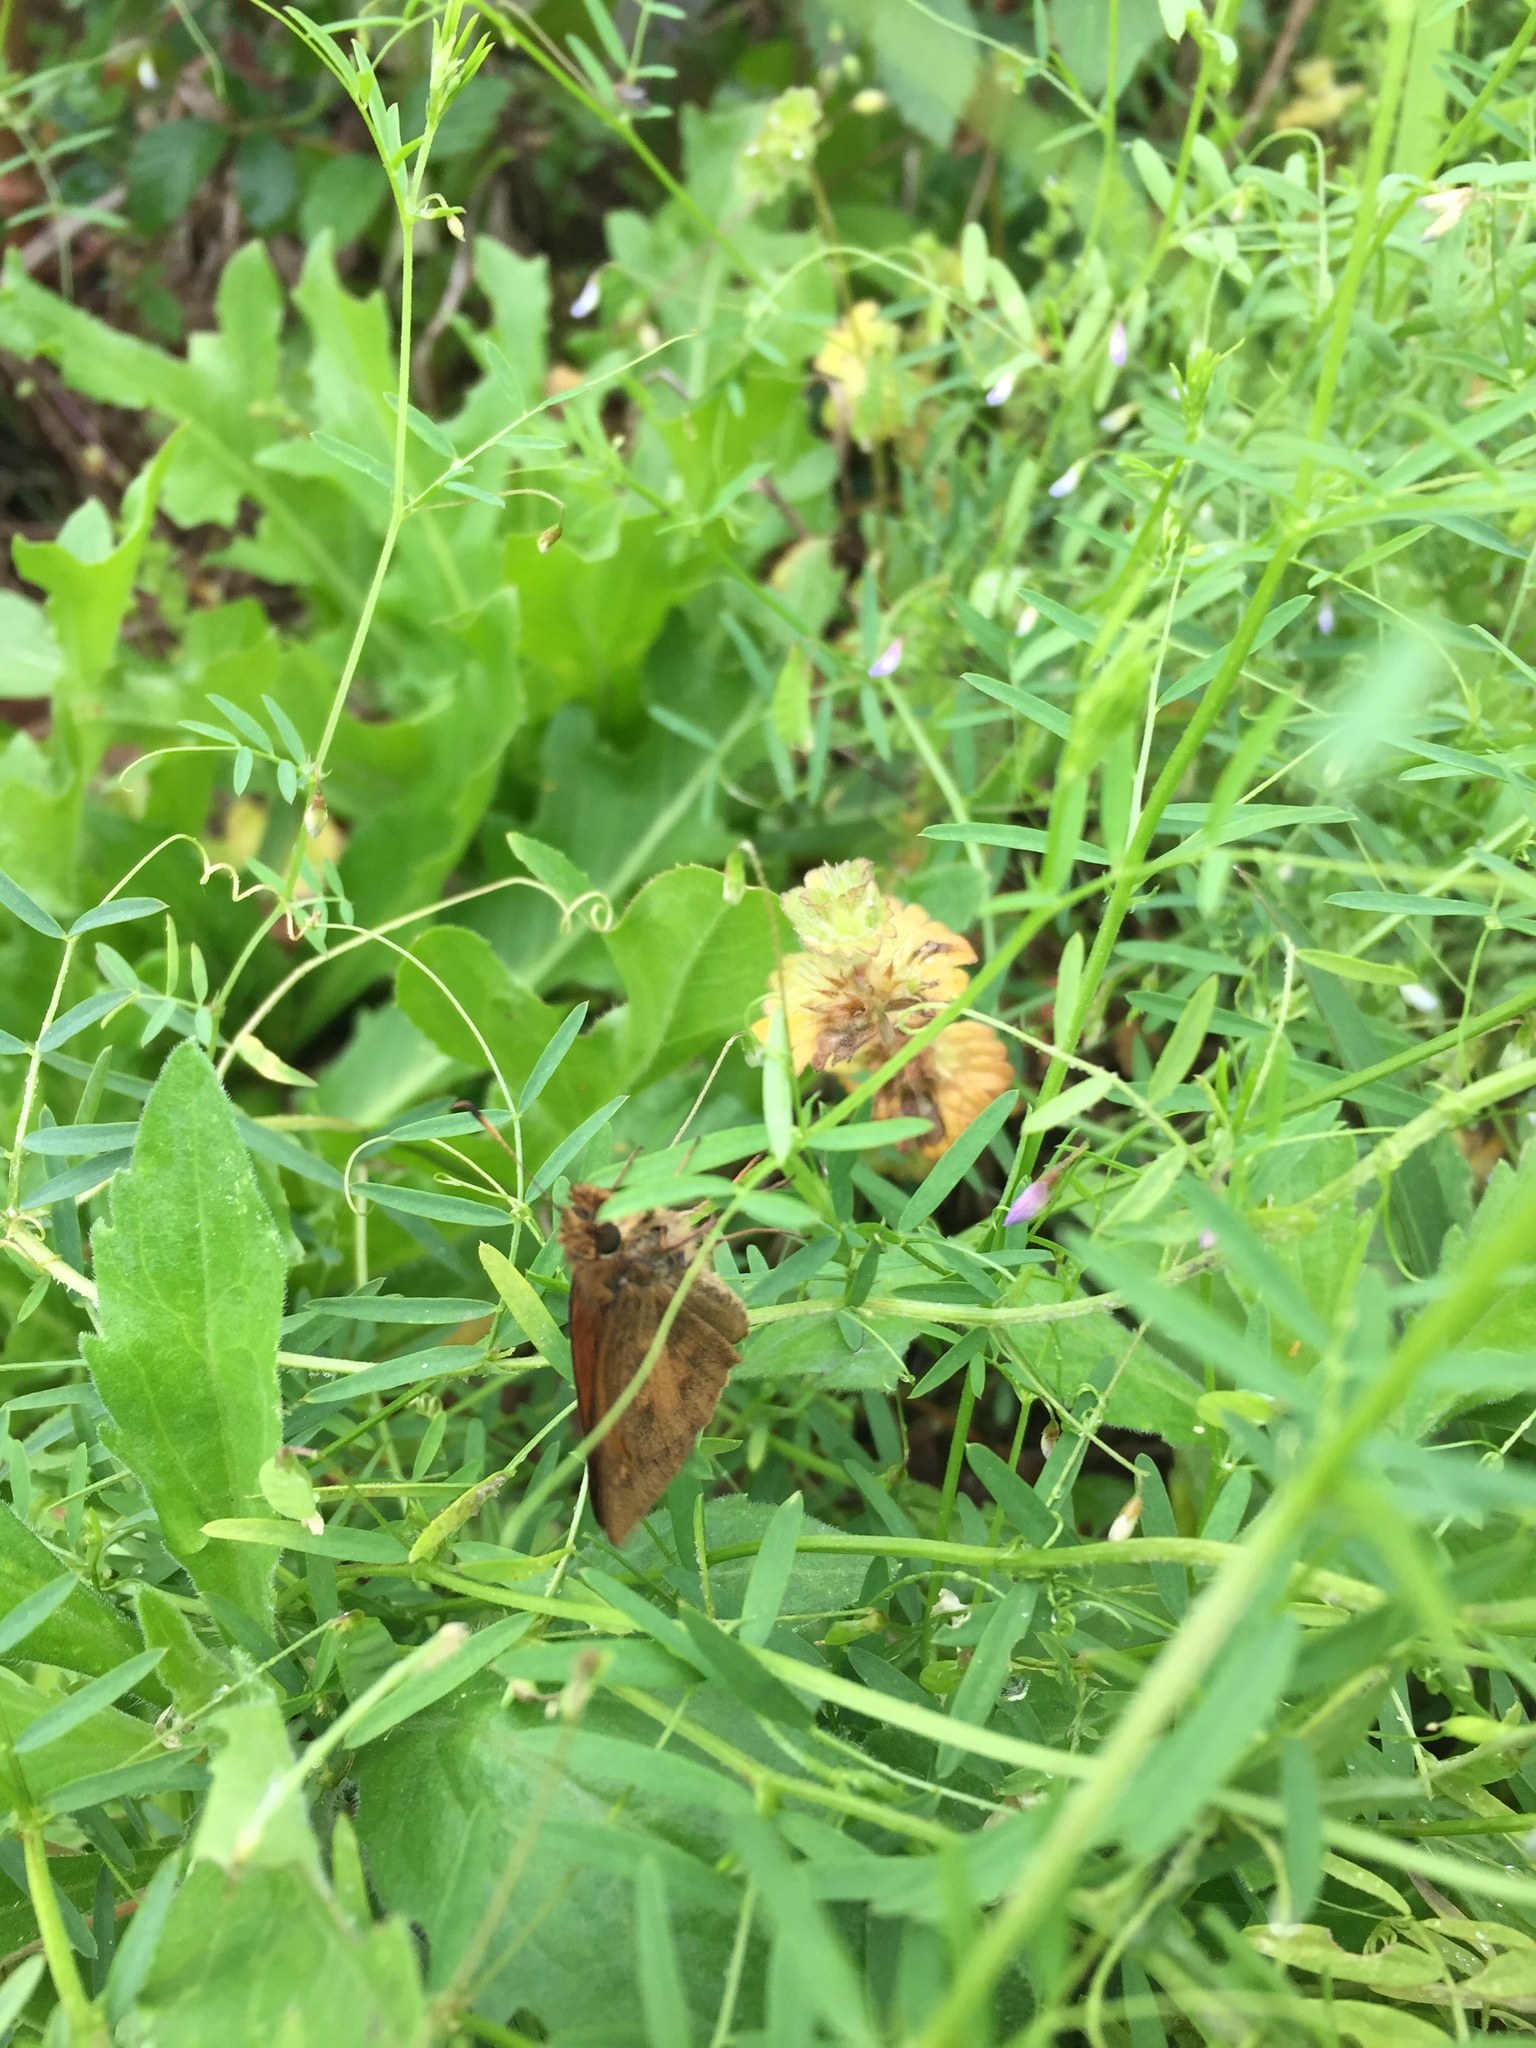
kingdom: Animalia
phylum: Arthropoda
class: Insecta
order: Lepidoptera
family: Hesperiidae
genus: Poanes
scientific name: Poanes viator
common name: Broad-winged skipper
